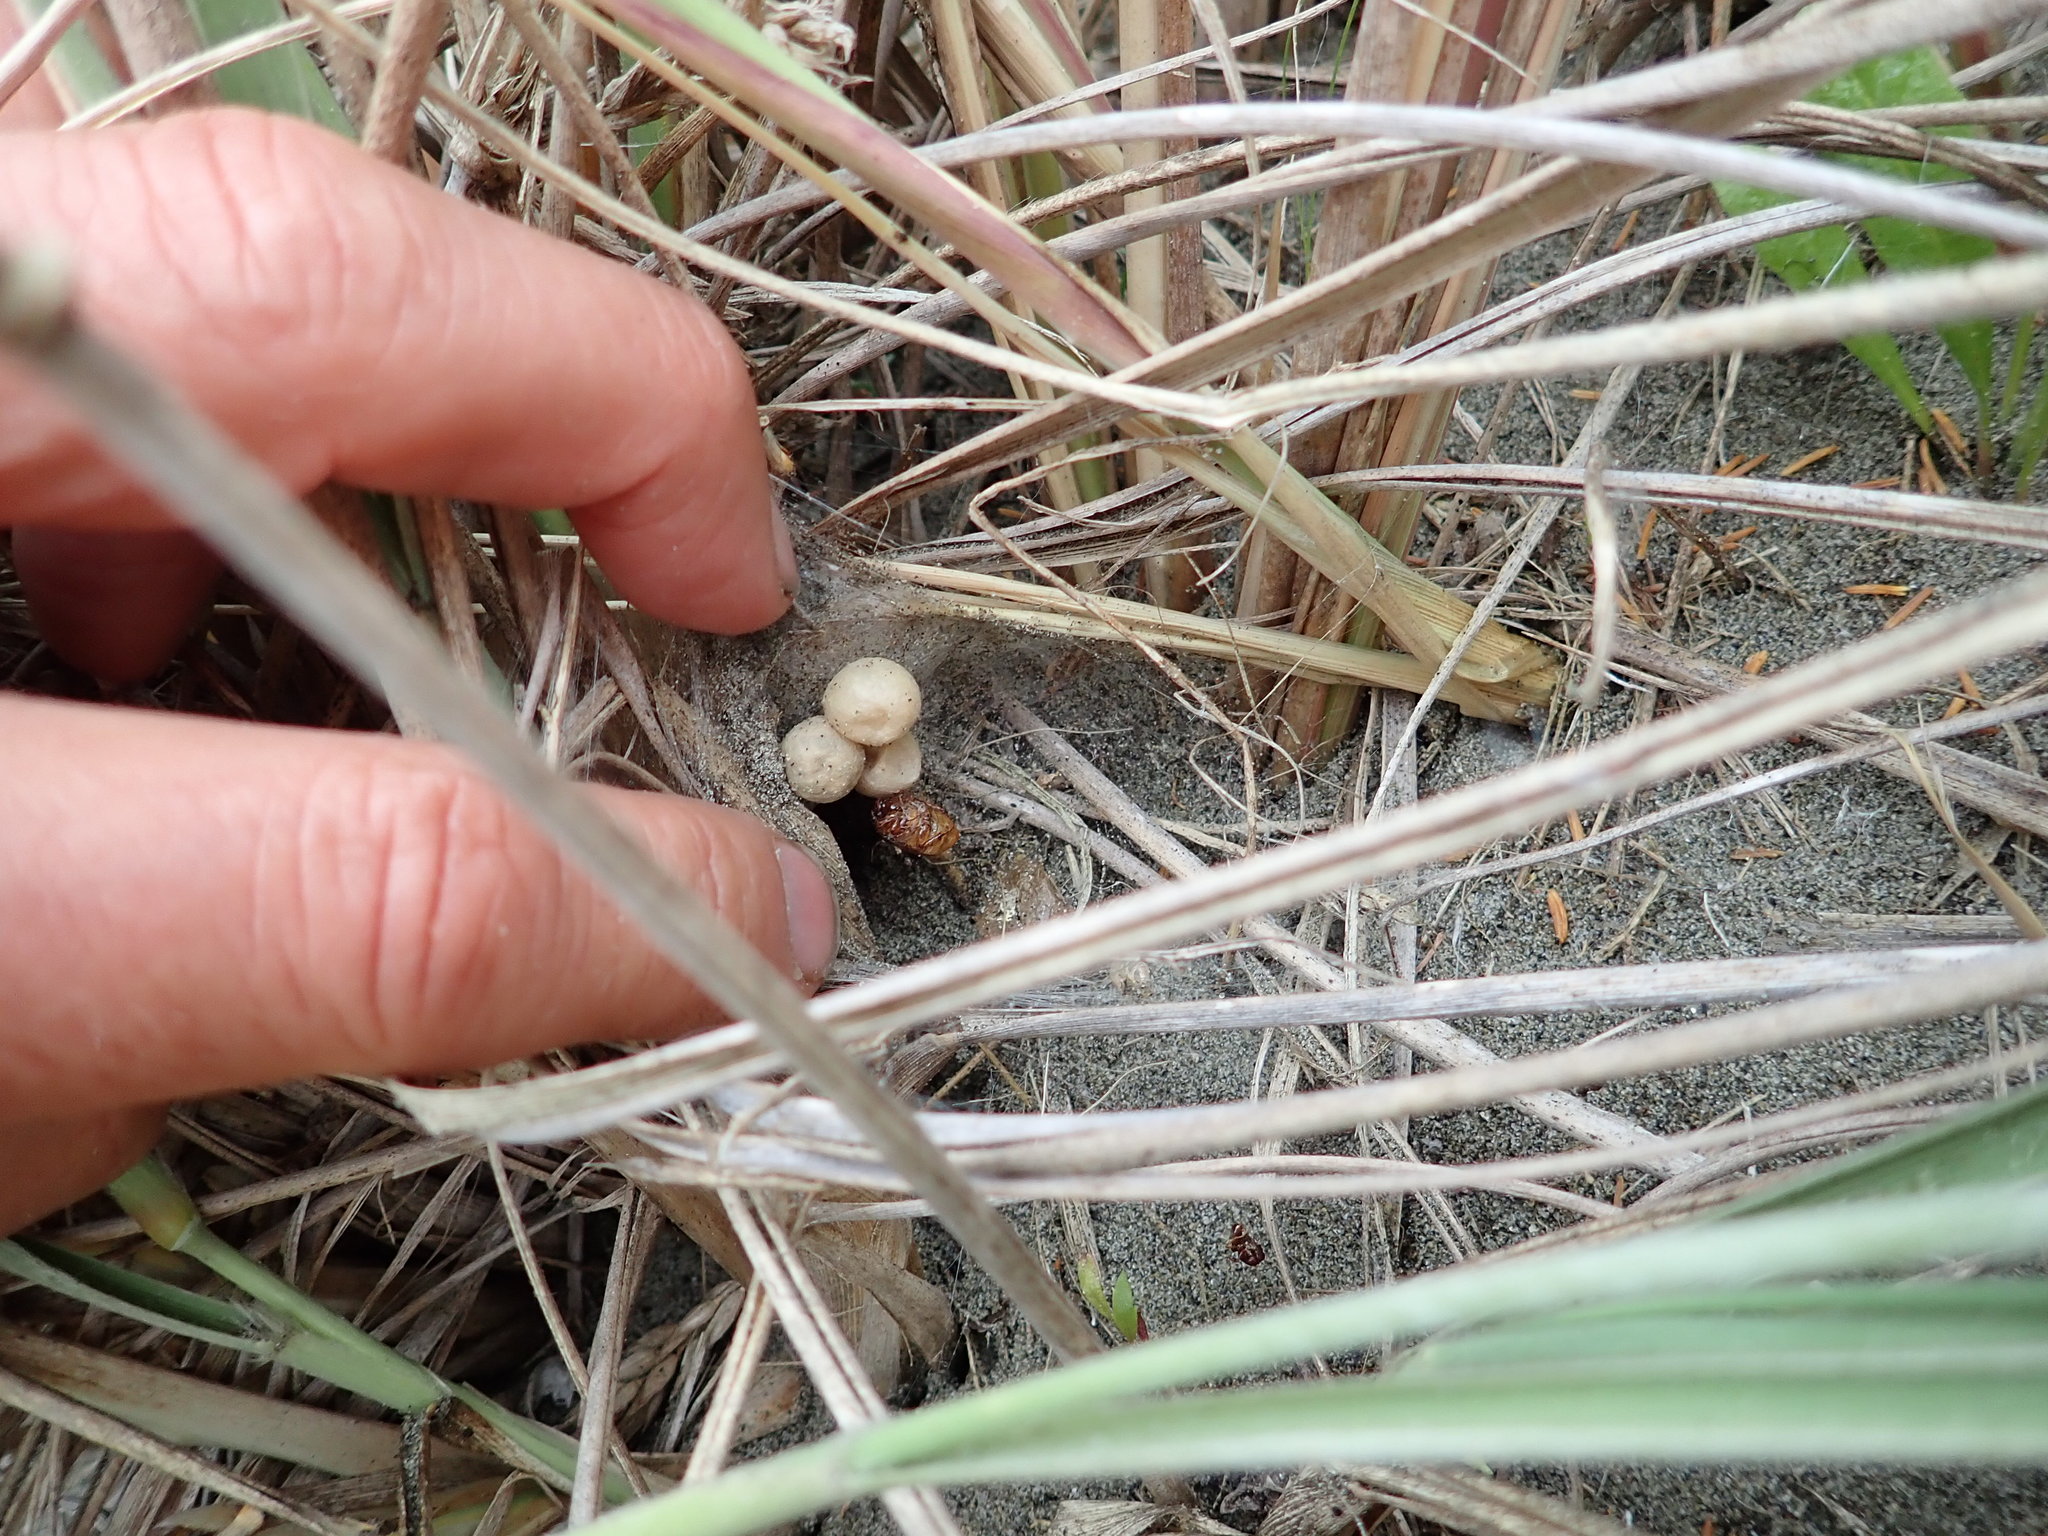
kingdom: Animalia
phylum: Arthropoda
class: Arachnida
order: Araneae
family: Theridiidae
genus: Latrodectus
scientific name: Latrodectus katipo
